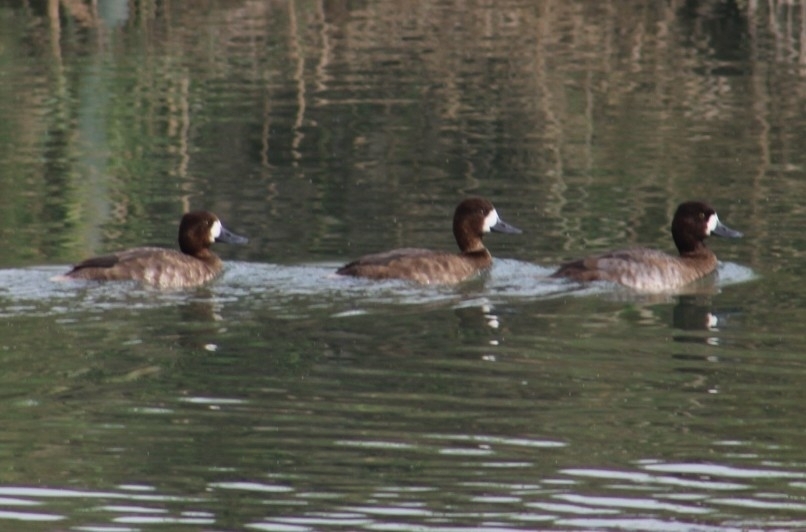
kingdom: Animalia
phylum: Chordata
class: Aves
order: Anseriformes
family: Anatidae
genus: Aythya
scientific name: Aythya affinis
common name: Lesser scaup
